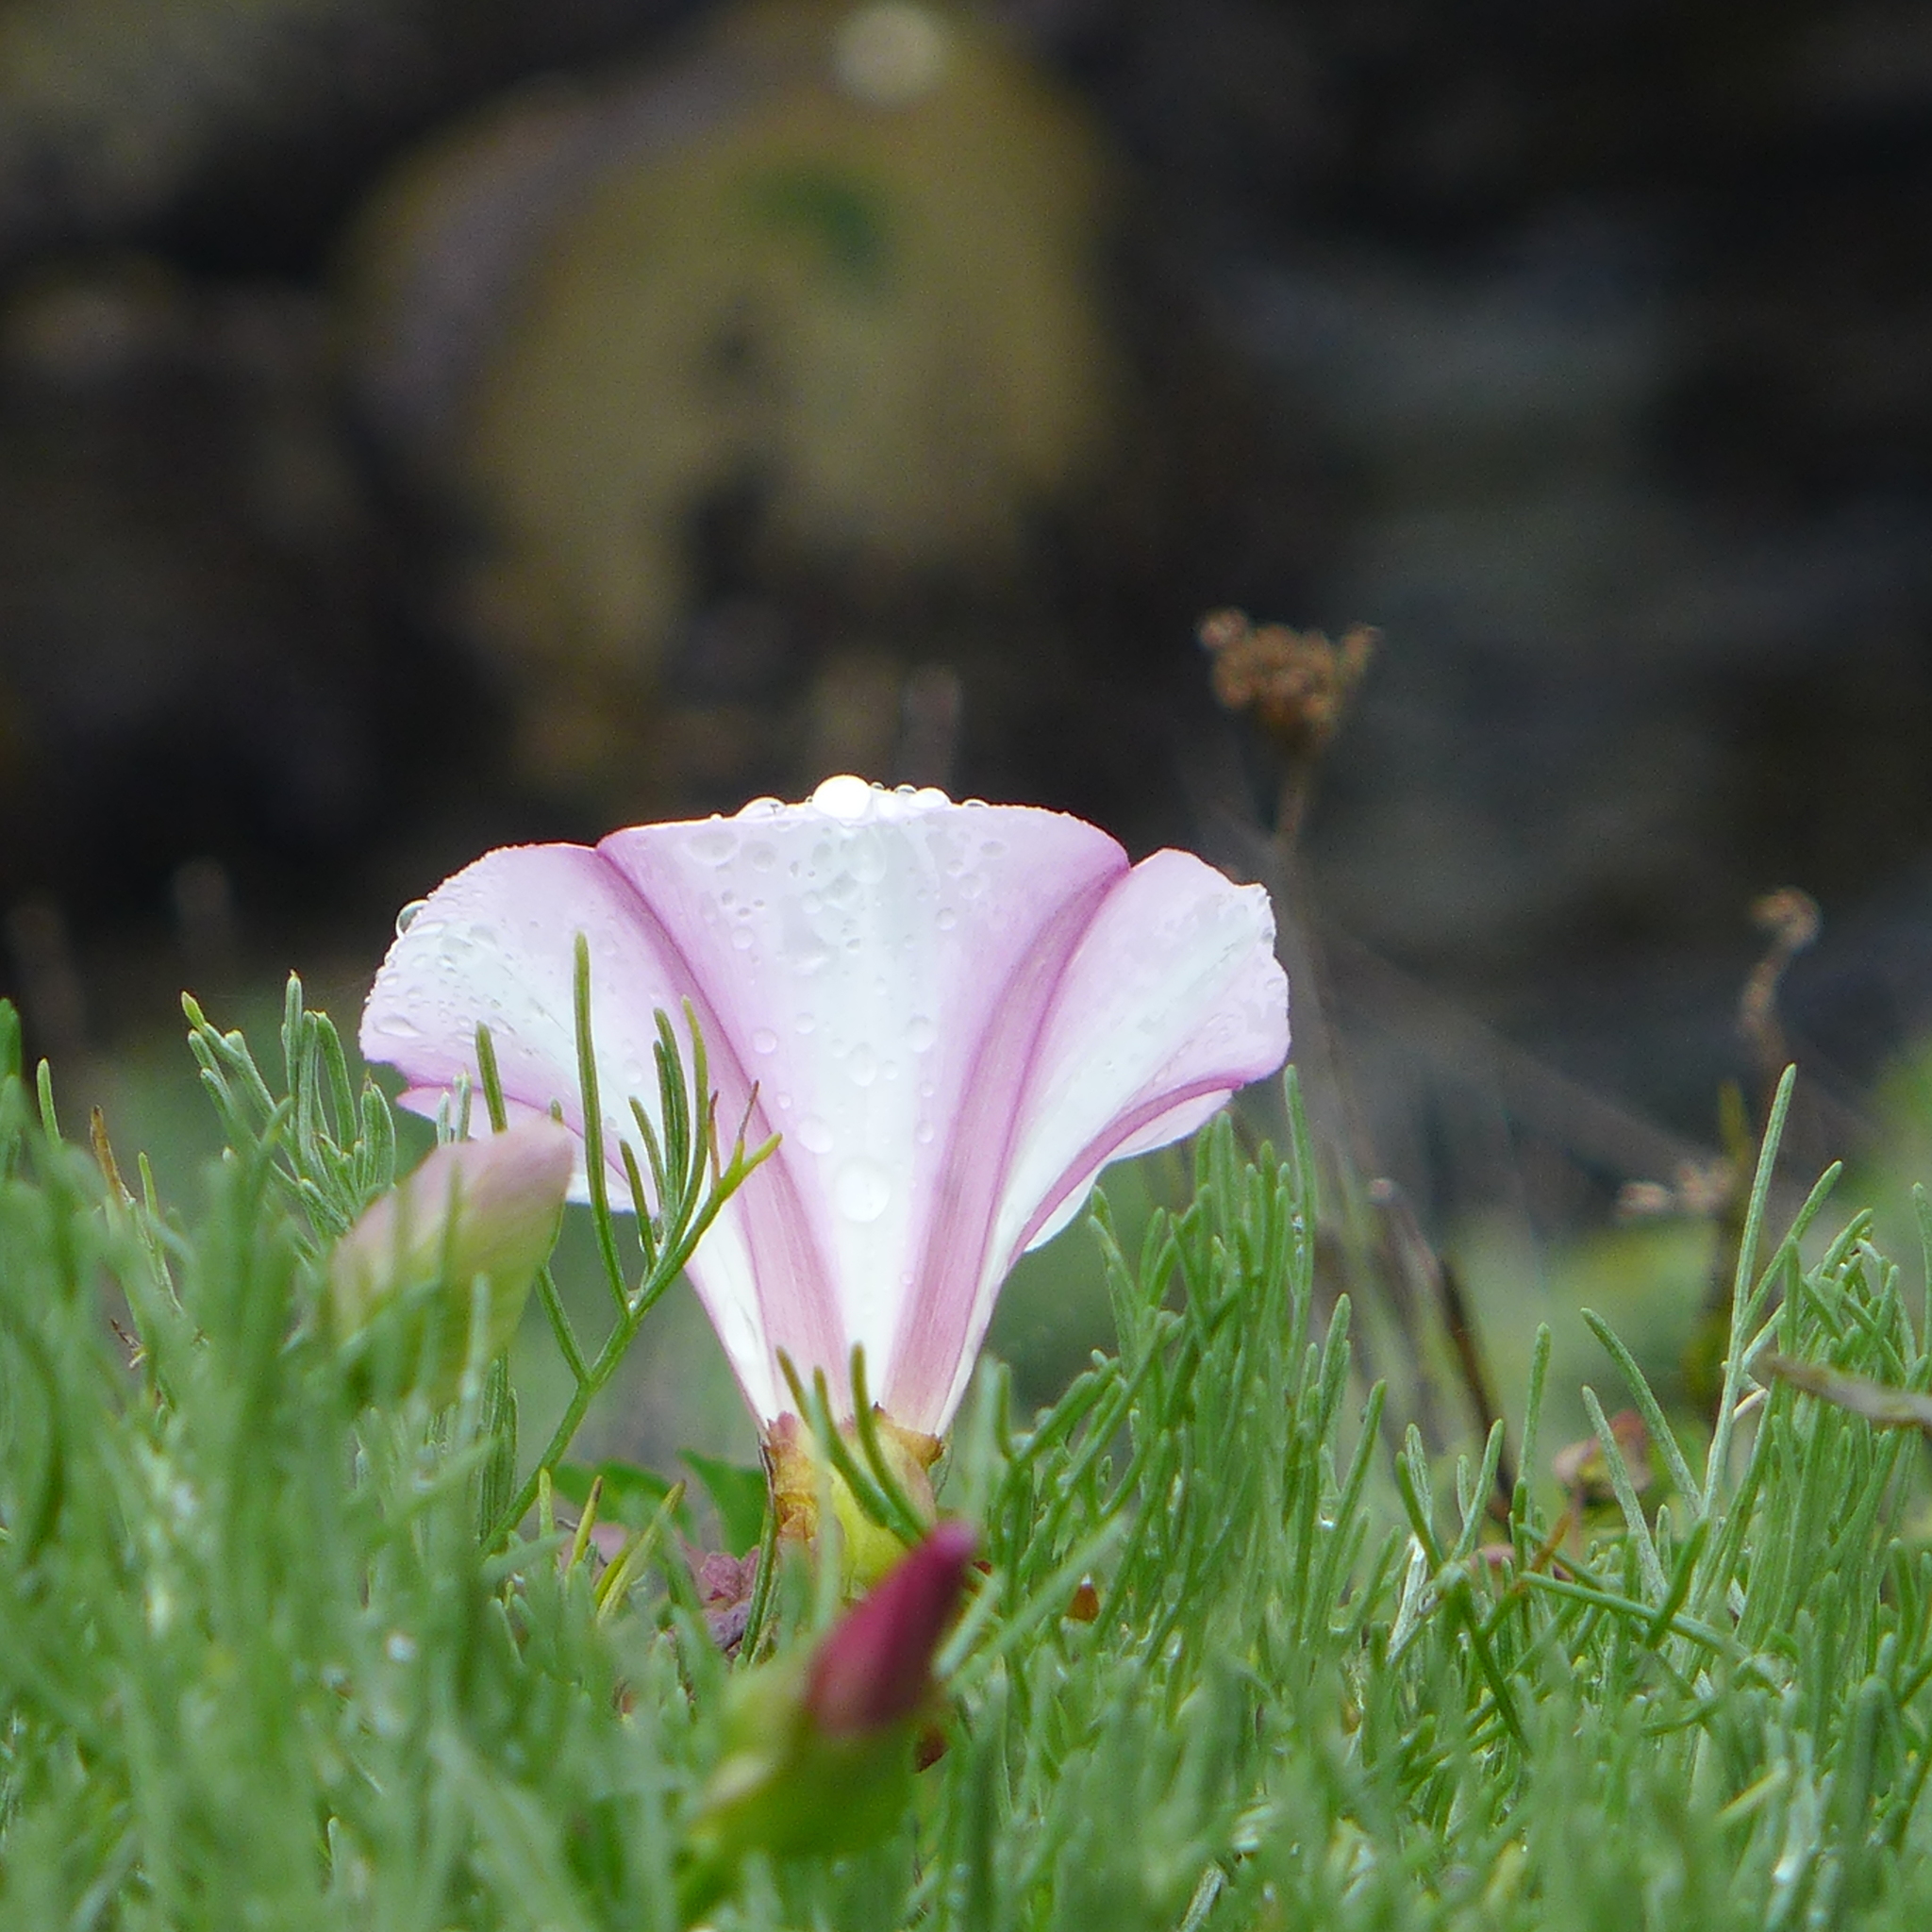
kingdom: Plantae
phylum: Tracheophyta
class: Magnoliopsida
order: Solanales
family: Convolvulaceae
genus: Calystegia
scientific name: Calystegia macrostegia
